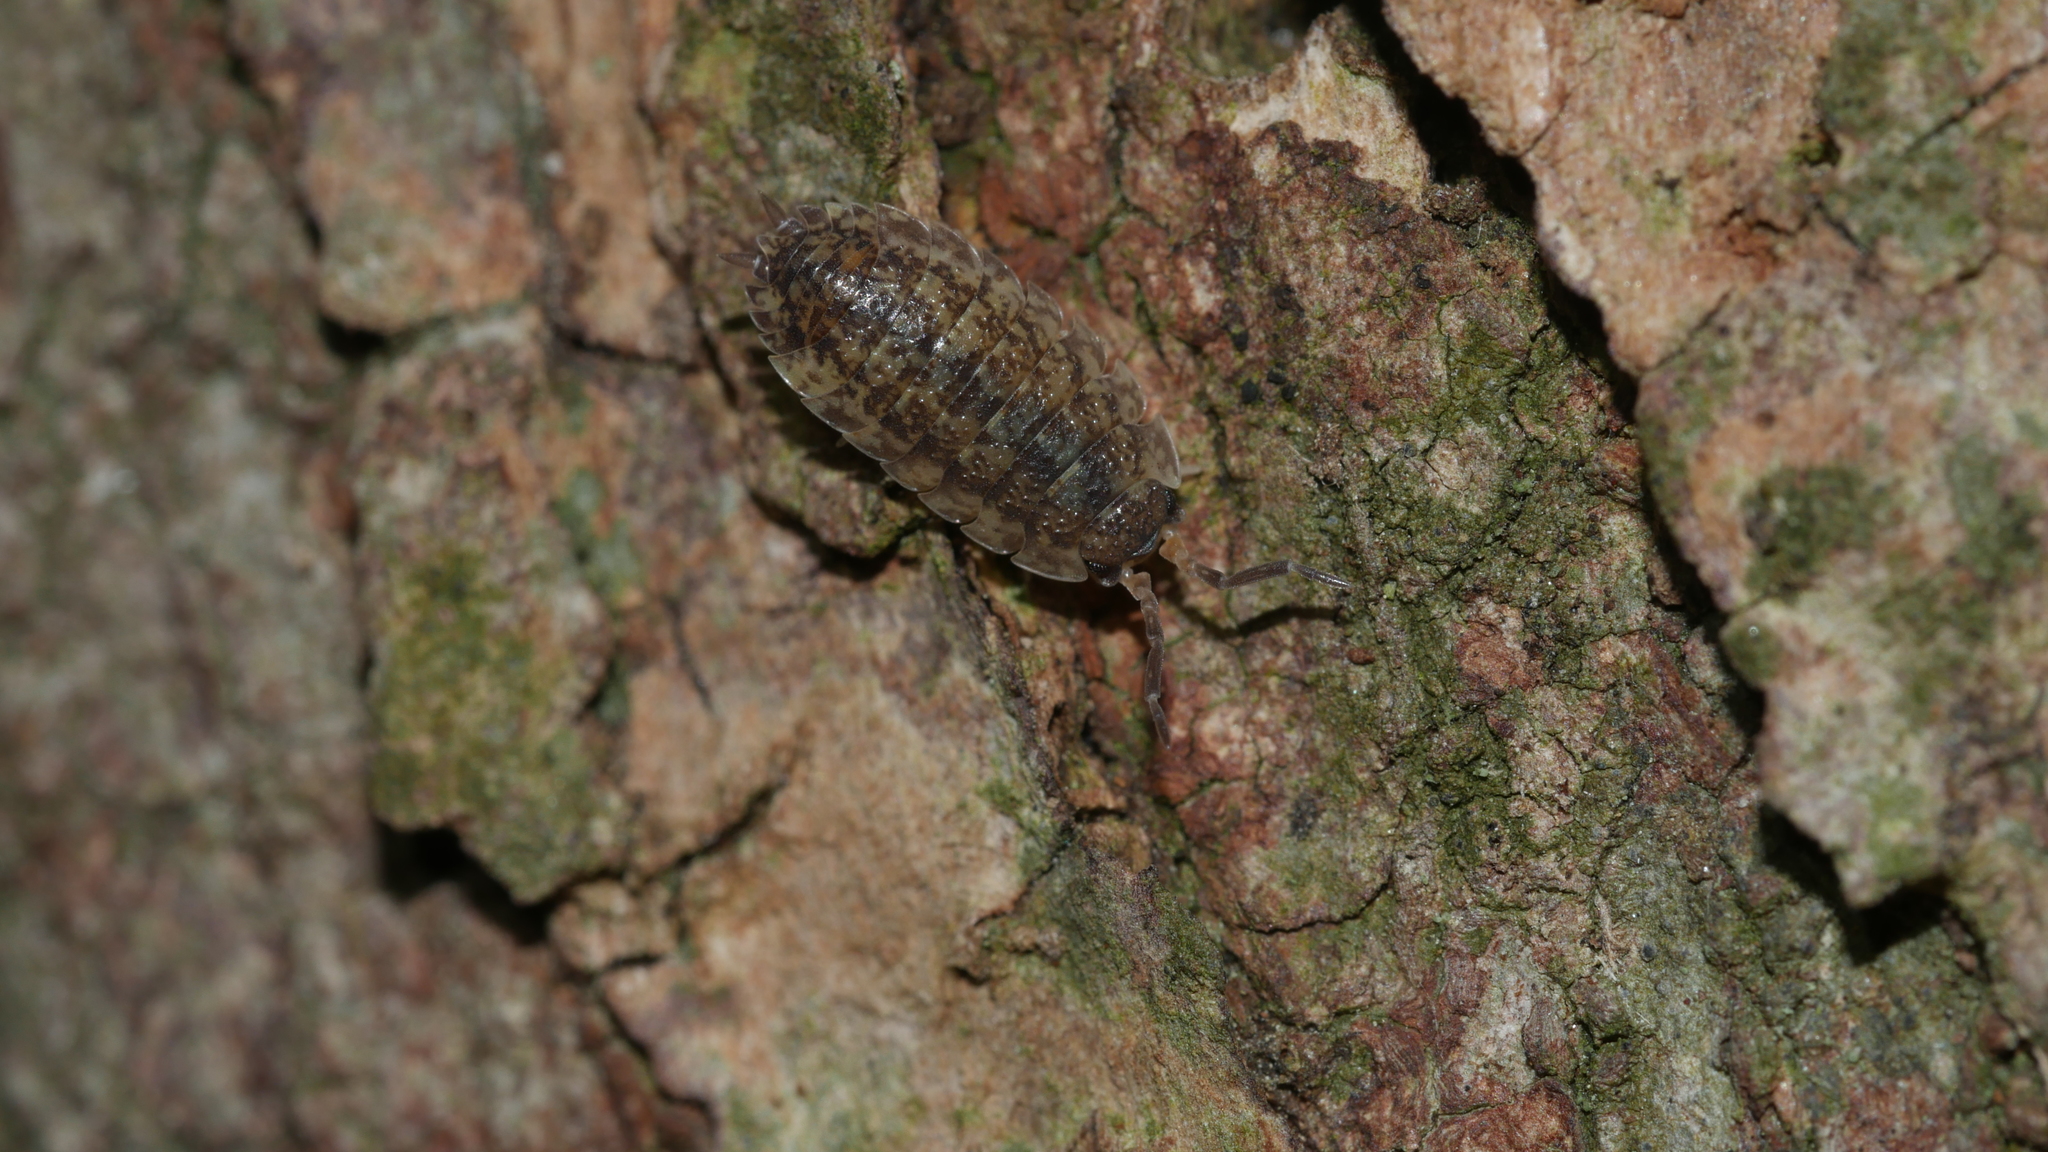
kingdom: Animalia
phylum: Arthropoda
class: Malacostraca
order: Isopoda
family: Porcellionidae
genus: Porcellio
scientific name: Porcellio scaber
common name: Common rough woodlouse
